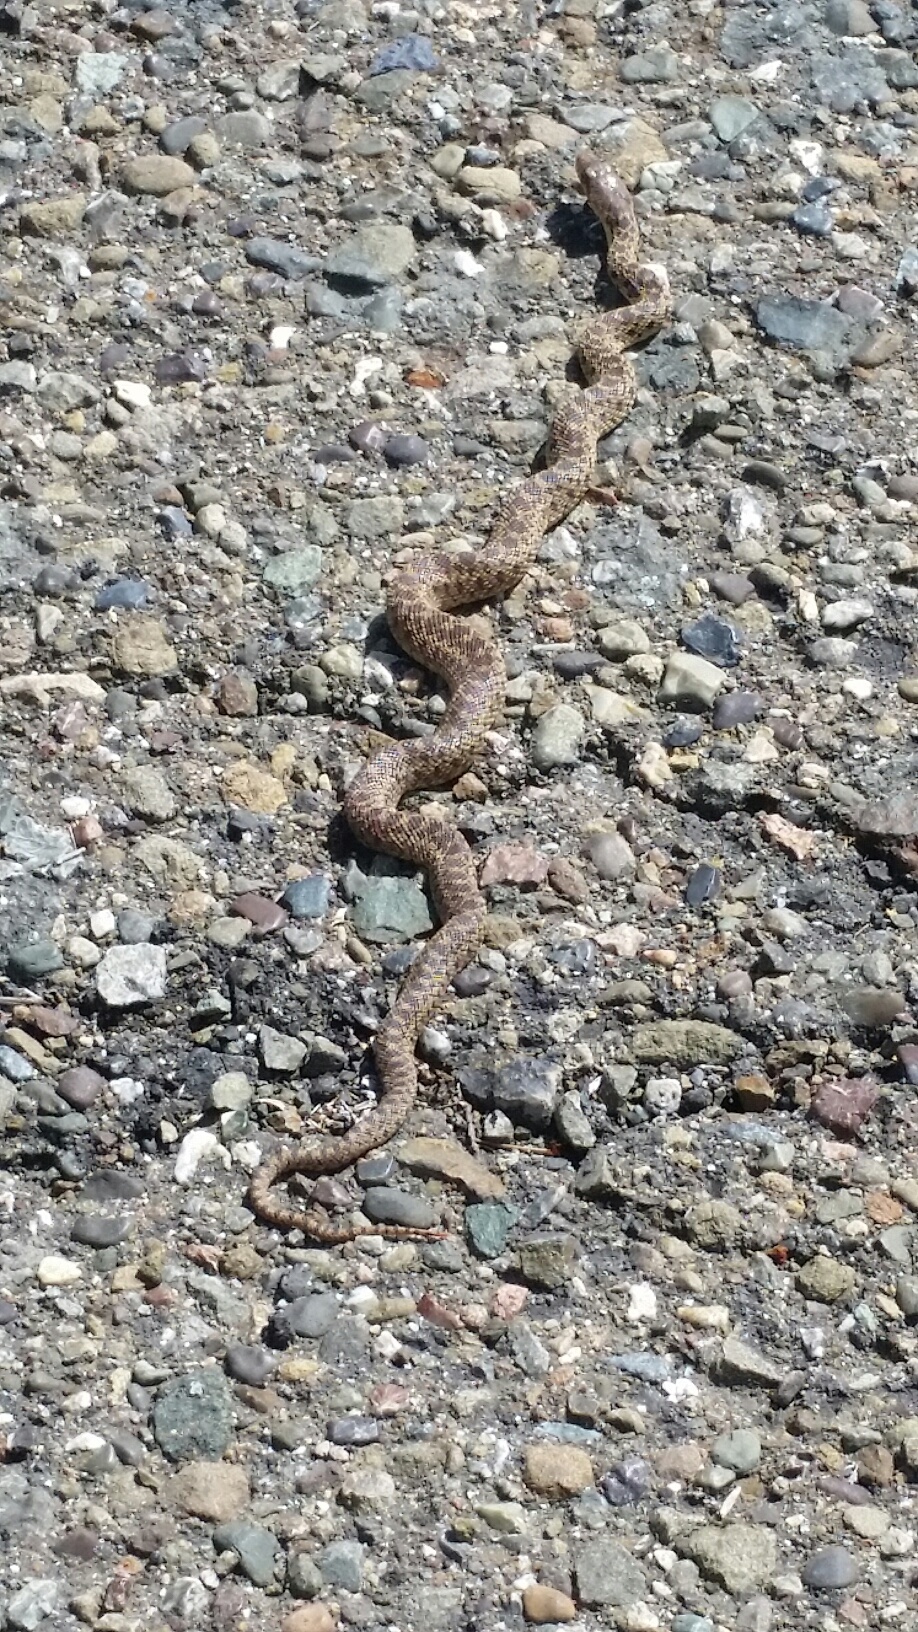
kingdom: Animalia
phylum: Chordata
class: Squamata
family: Colubridae
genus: Pituophis
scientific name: Pituophis catenifer
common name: Gopher snake
